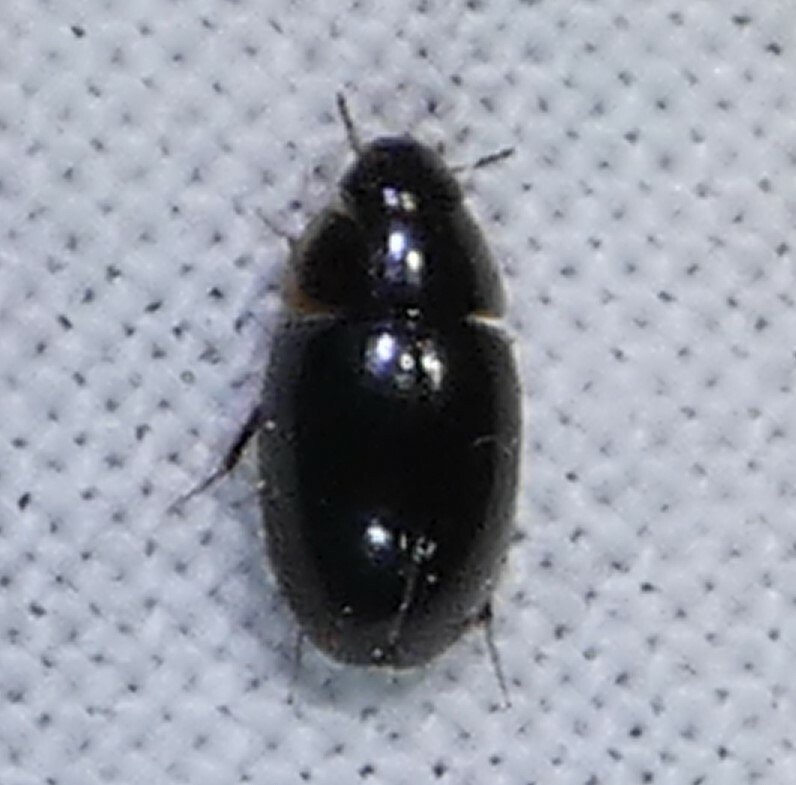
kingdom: Animalia
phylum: Arthropoda
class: Insecta
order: Coleoptera
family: Hydrophilidae
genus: Enochrus
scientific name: Enochrus
